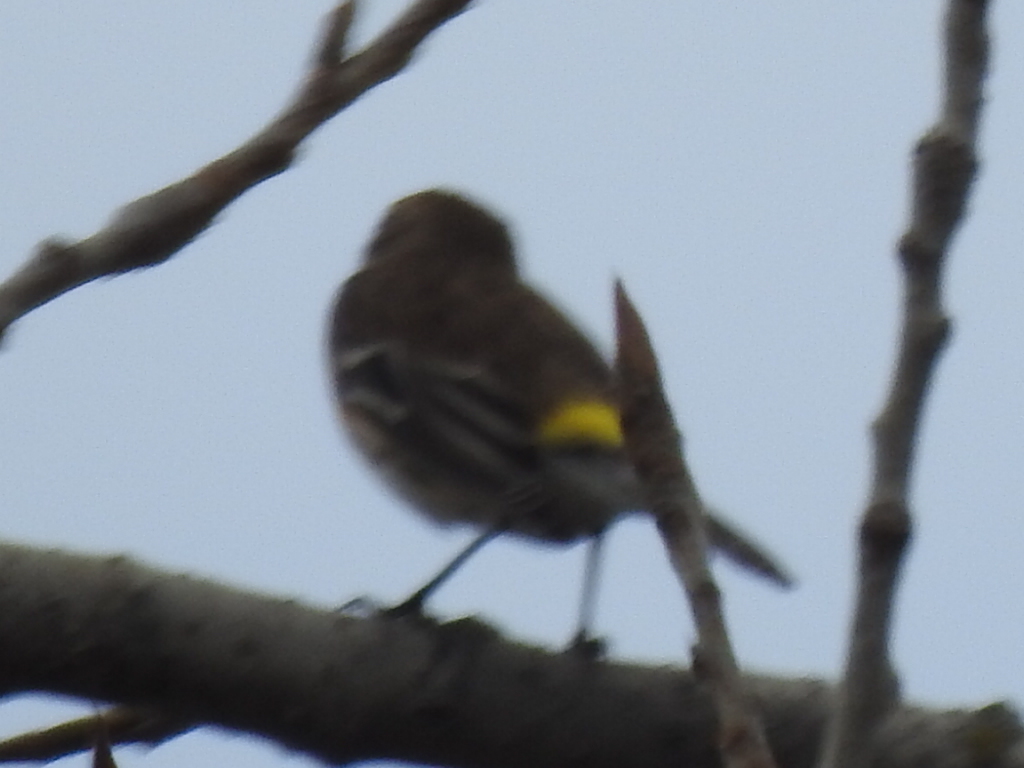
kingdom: Animalia
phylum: Chordata
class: Aves
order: Passeriformes
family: Parulidae
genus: Setophaga
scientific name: Setophaga coronata
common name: Myrtle warbler
